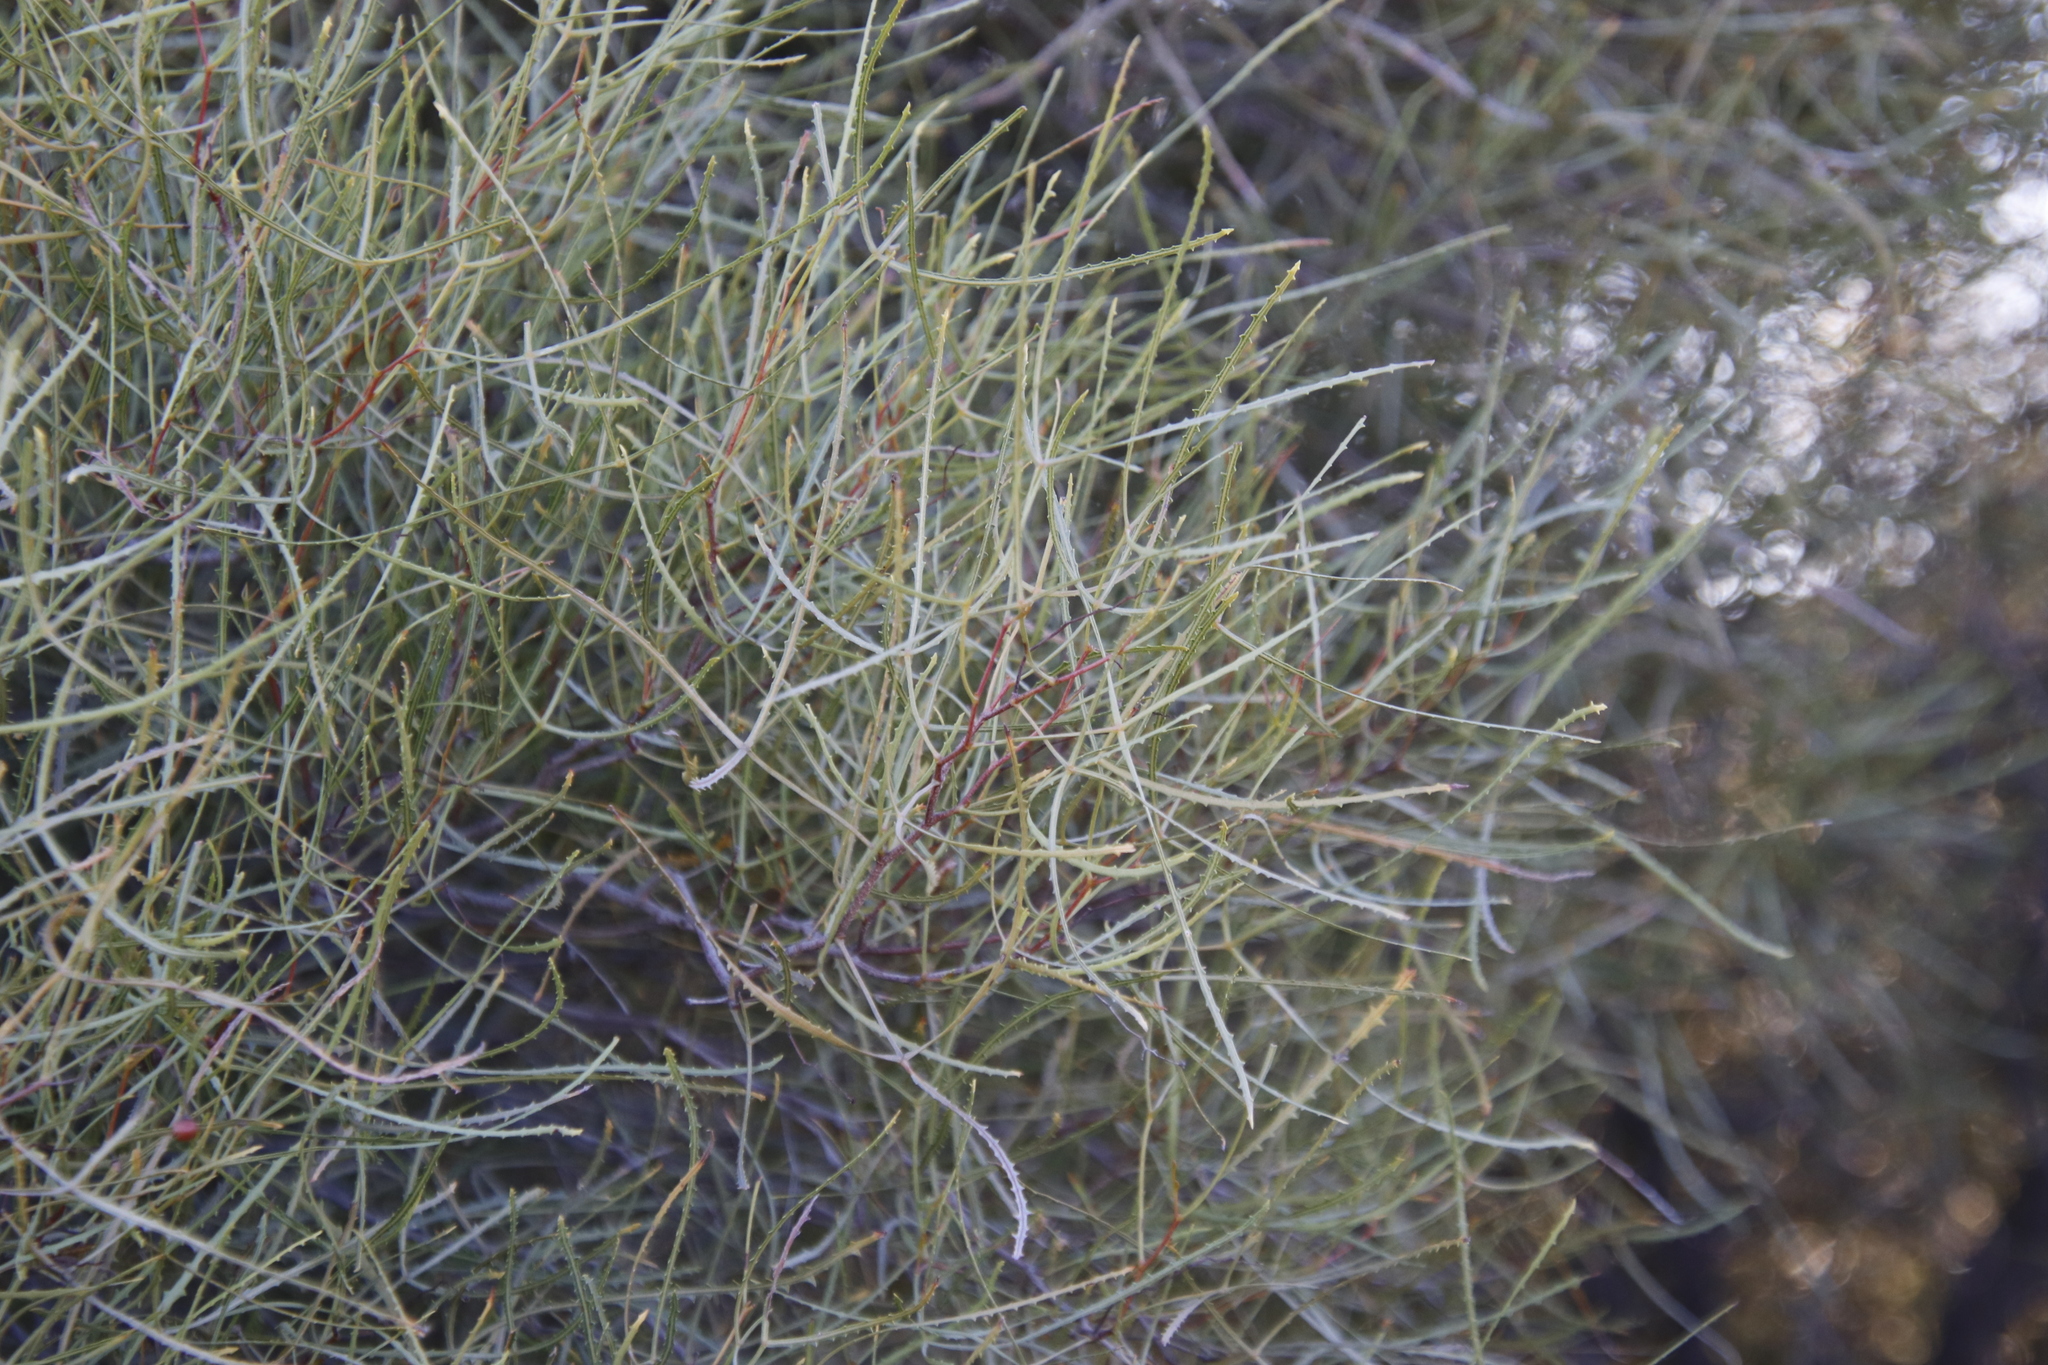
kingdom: Plantae
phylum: Tracheophyta
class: Magnoliopsida
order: Sapindales
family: Anacardiaceae
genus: Searsia
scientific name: Searsia erosa
